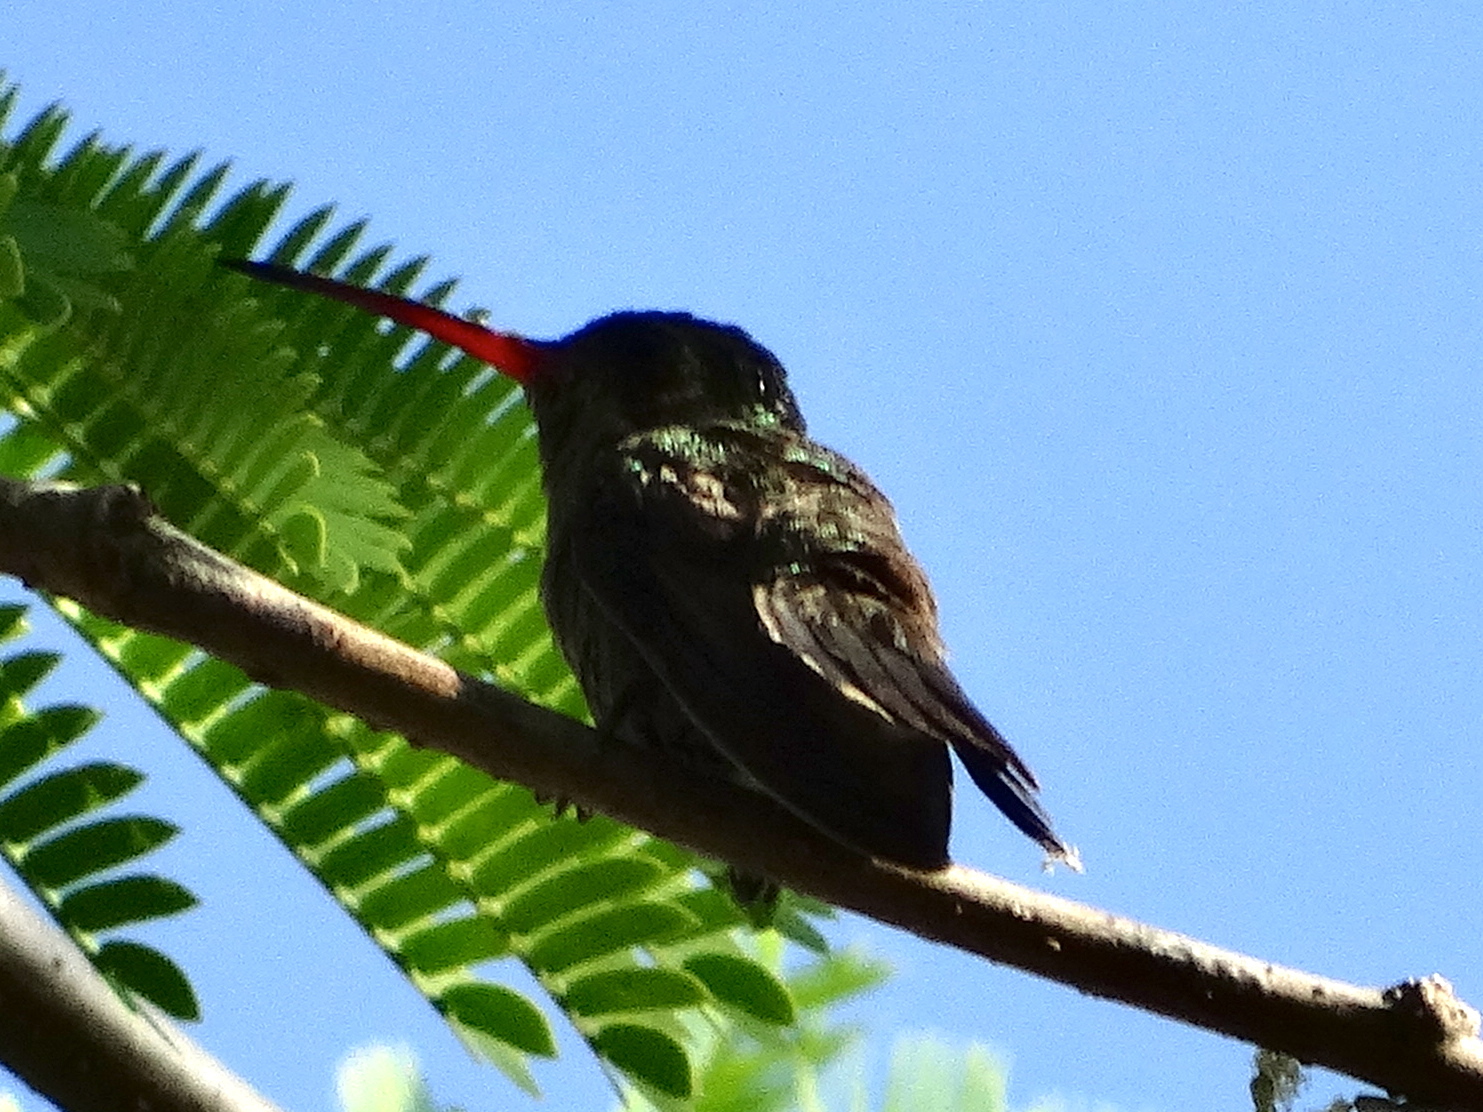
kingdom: Animalia
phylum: Chordata
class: Aves
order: Apodiformes
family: Trochilidae
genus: Cynanthus
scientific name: Cynanthus latirostris
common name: Broad-billed hummingbird
